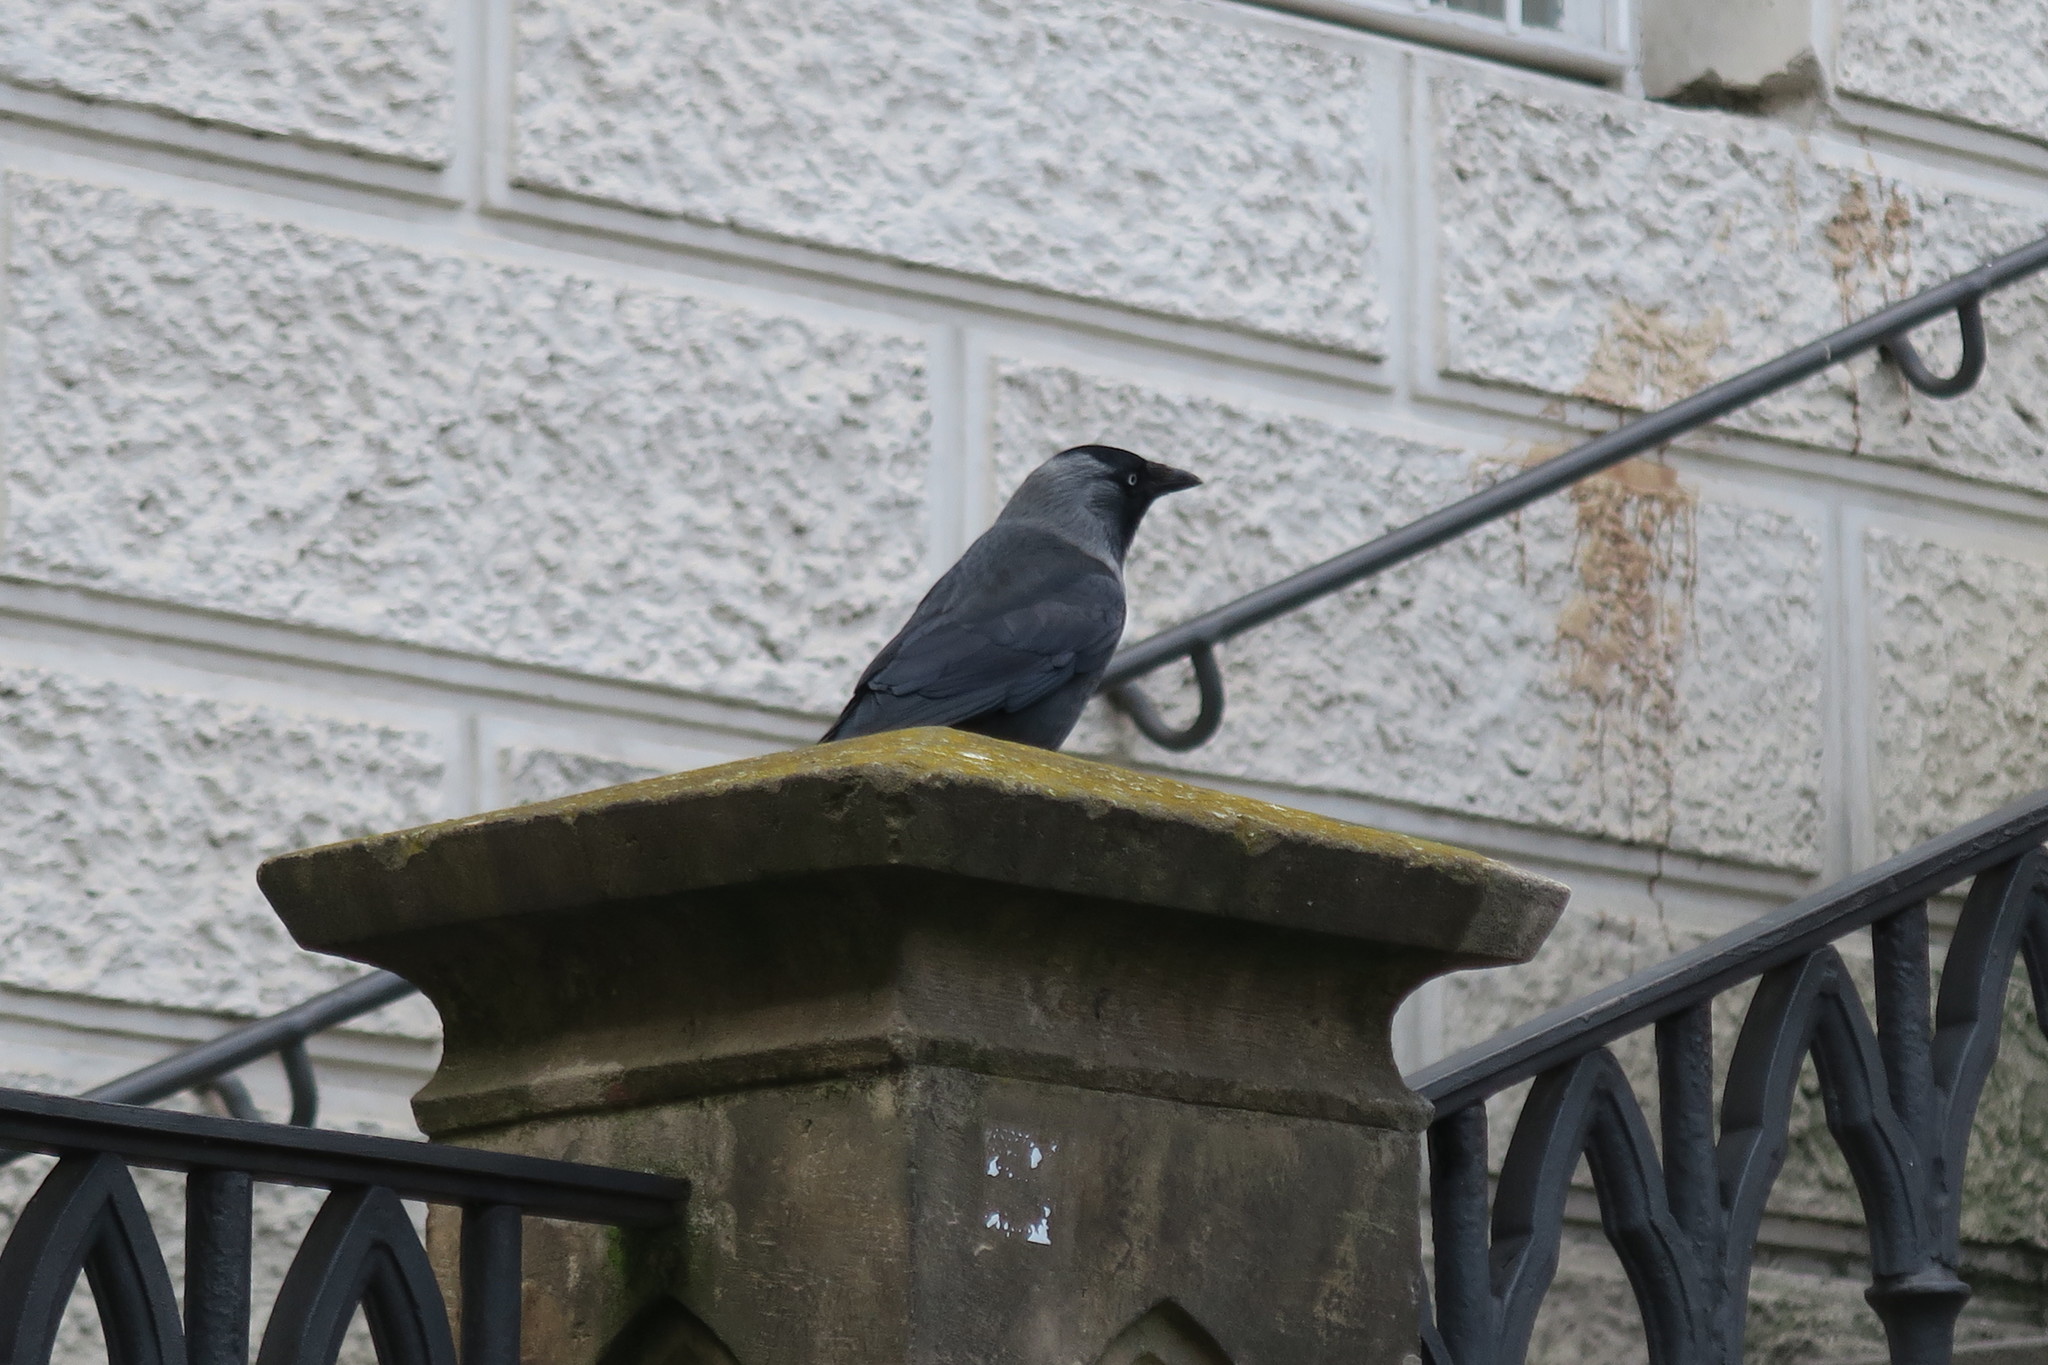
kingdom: Animalia
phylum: Chordata
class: Aves
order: Passeriformes
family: Corvidae
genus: Coloeus
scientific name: Coloeus monedula
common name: Western jackdaw
